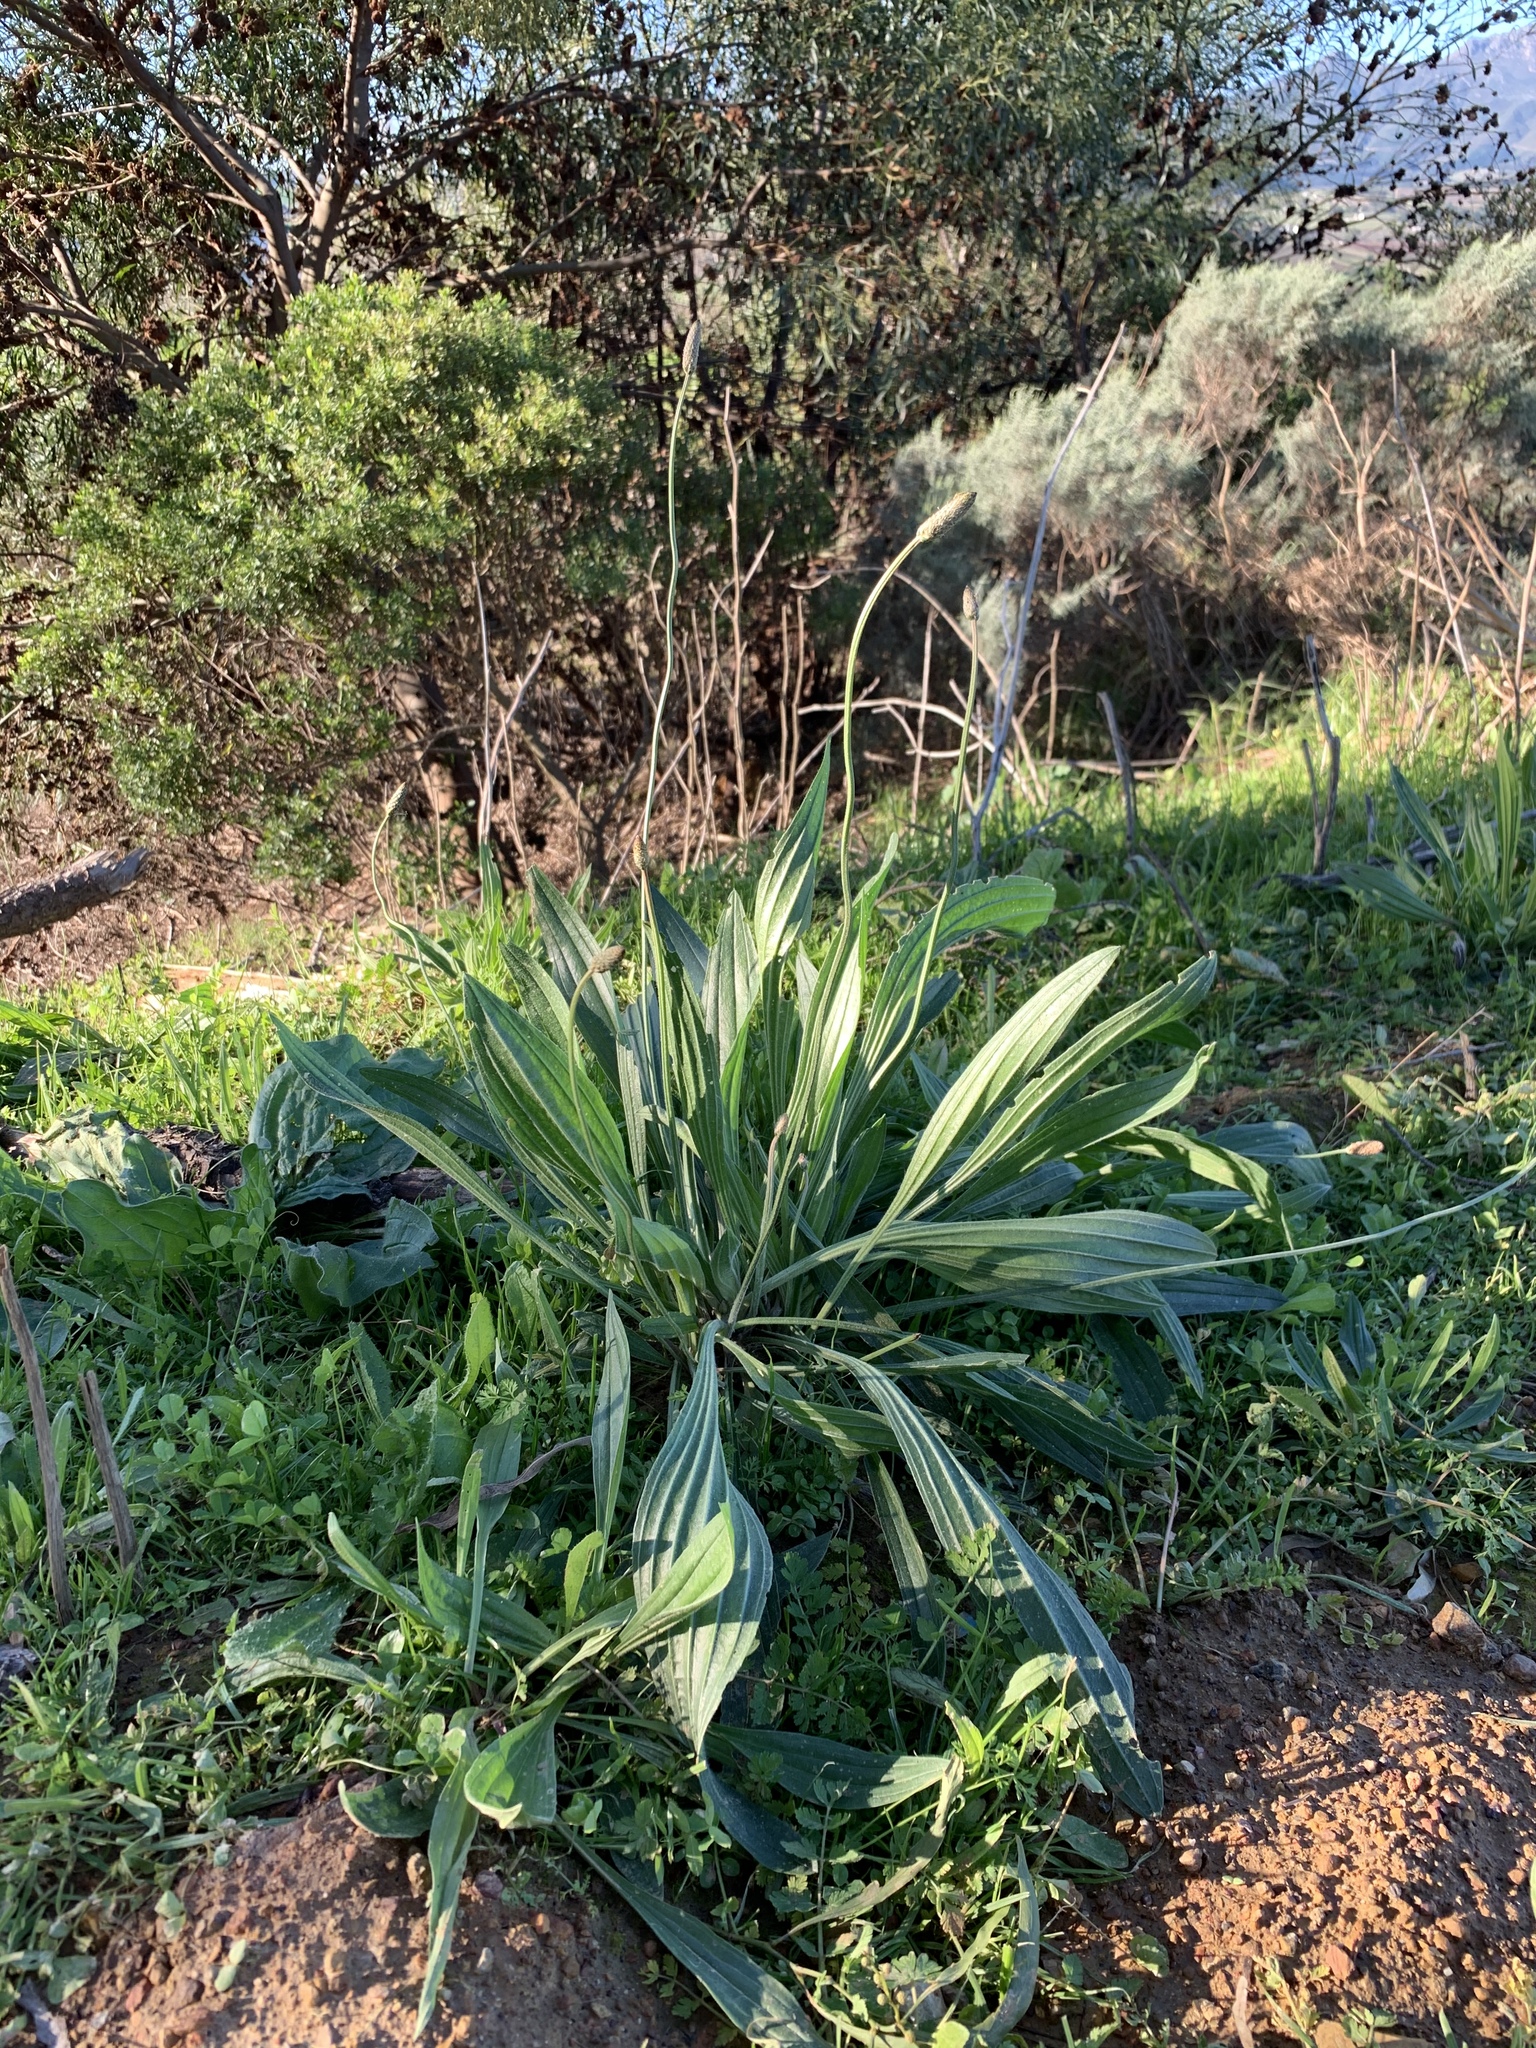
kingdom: Plantae
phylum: Tracheophyta
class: Magnoliopsida
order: Lamiales
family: Plantaginaceae
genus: Plantago
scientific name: Plantago lanceolata
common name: Ribwort plantain
